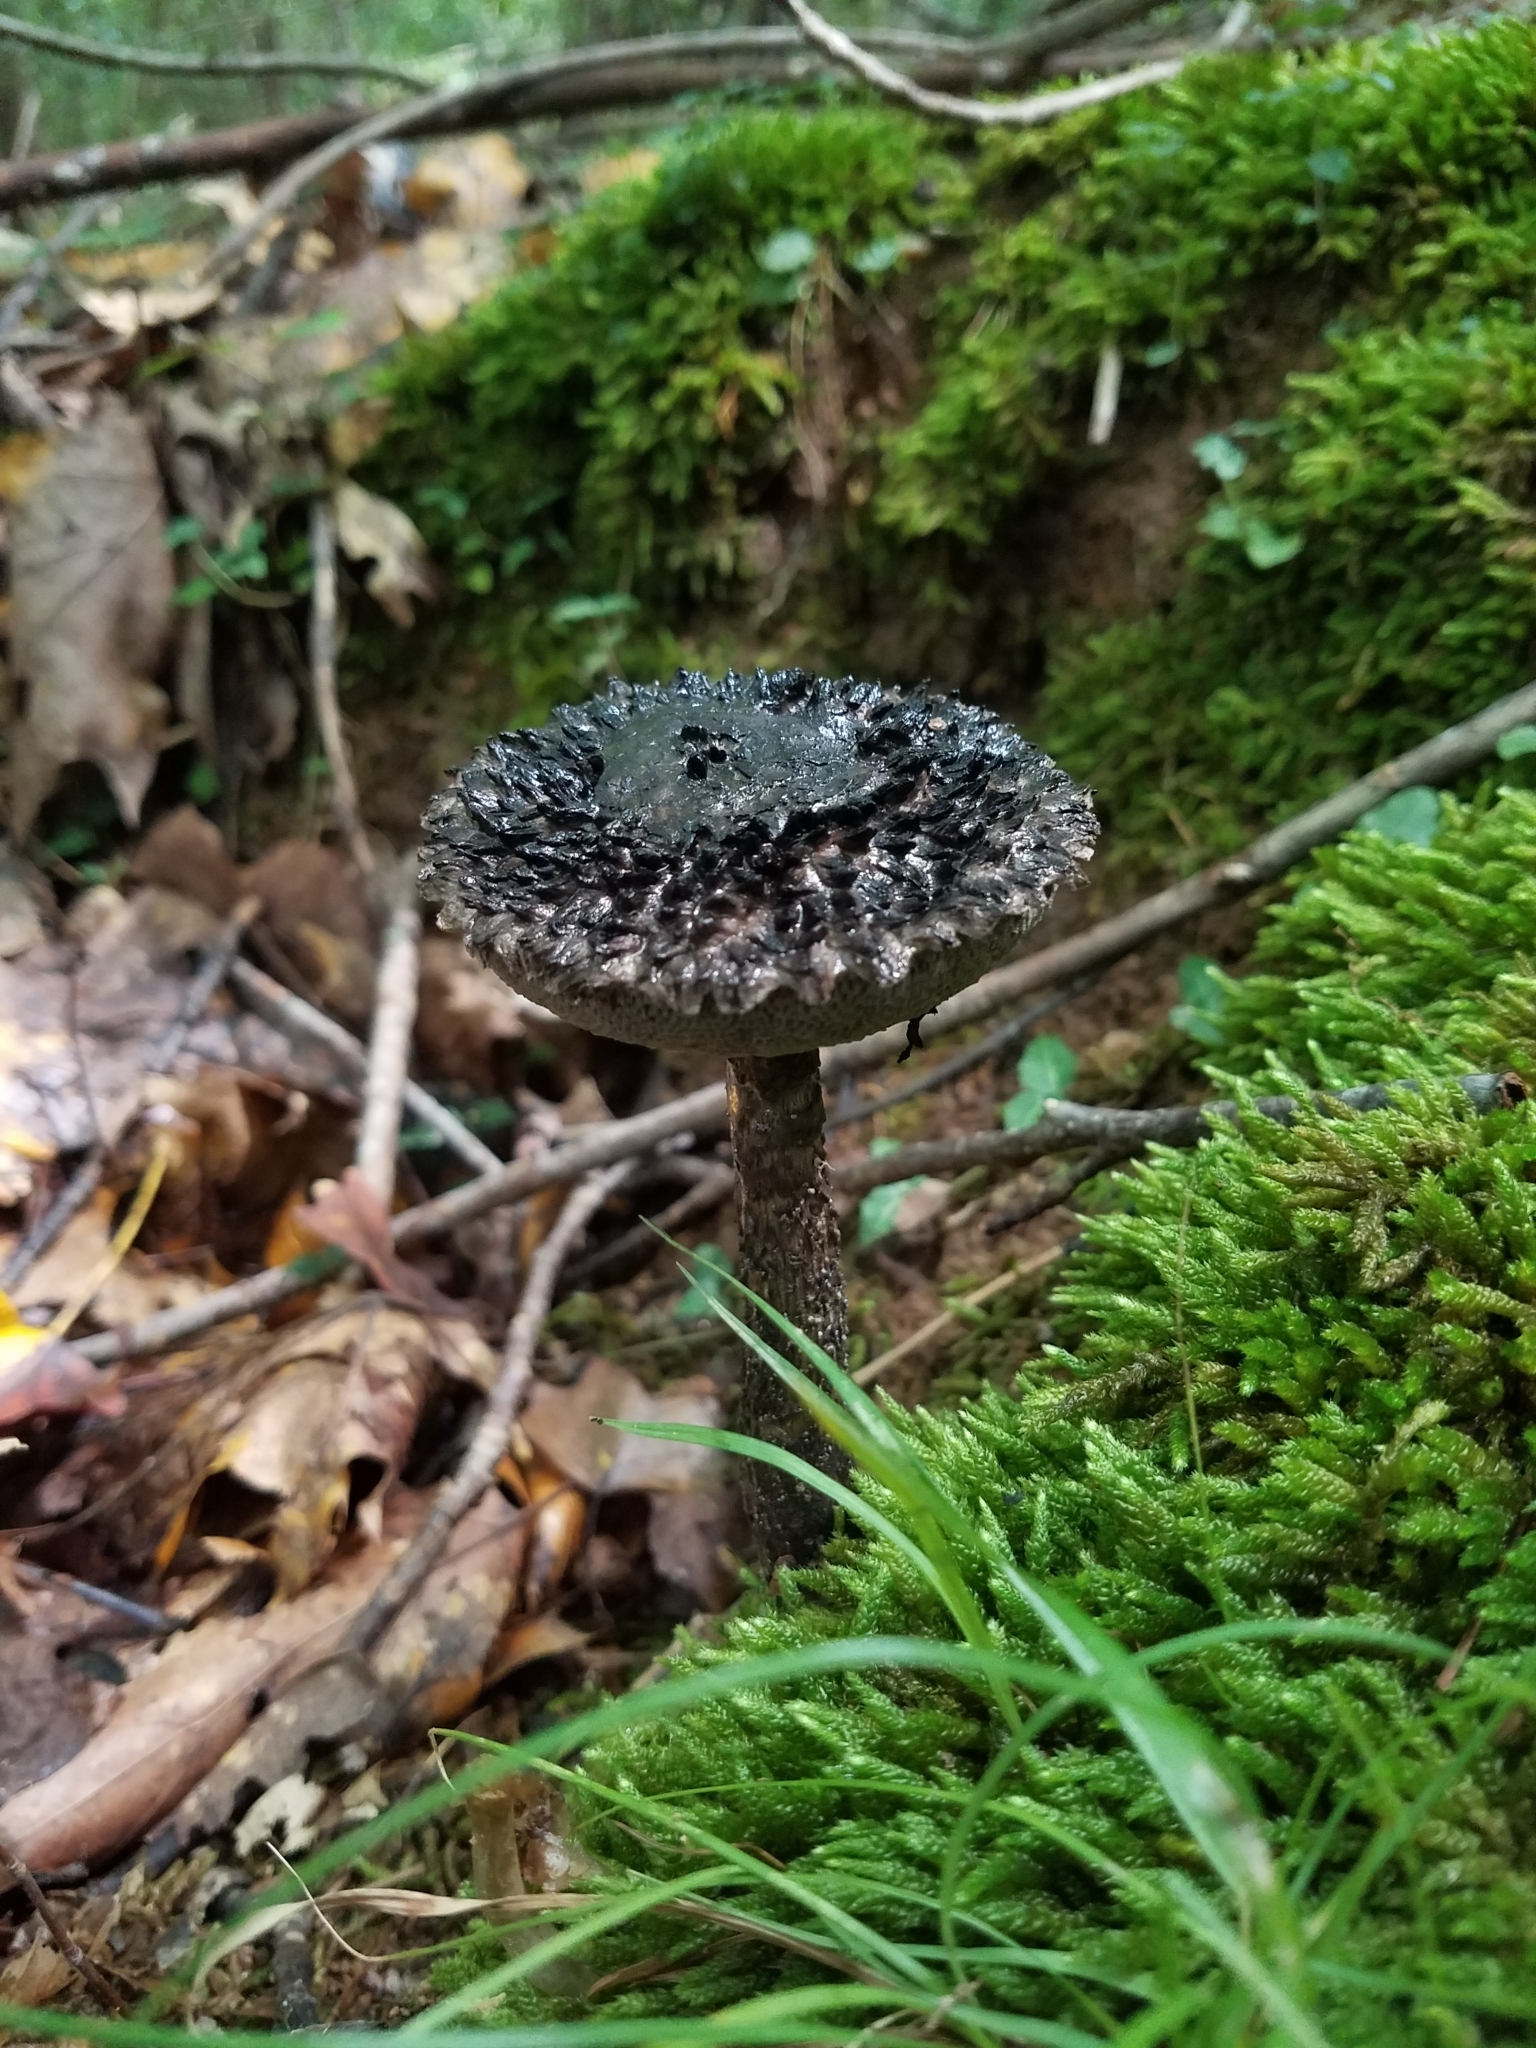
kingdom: Fungi
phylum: Basidiomycota
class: Agaricomycetes
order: Boletales
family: Boletaceae
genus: Strobilomyces
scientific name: Strobilomyces strobilaceus
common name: Old man of the woods
